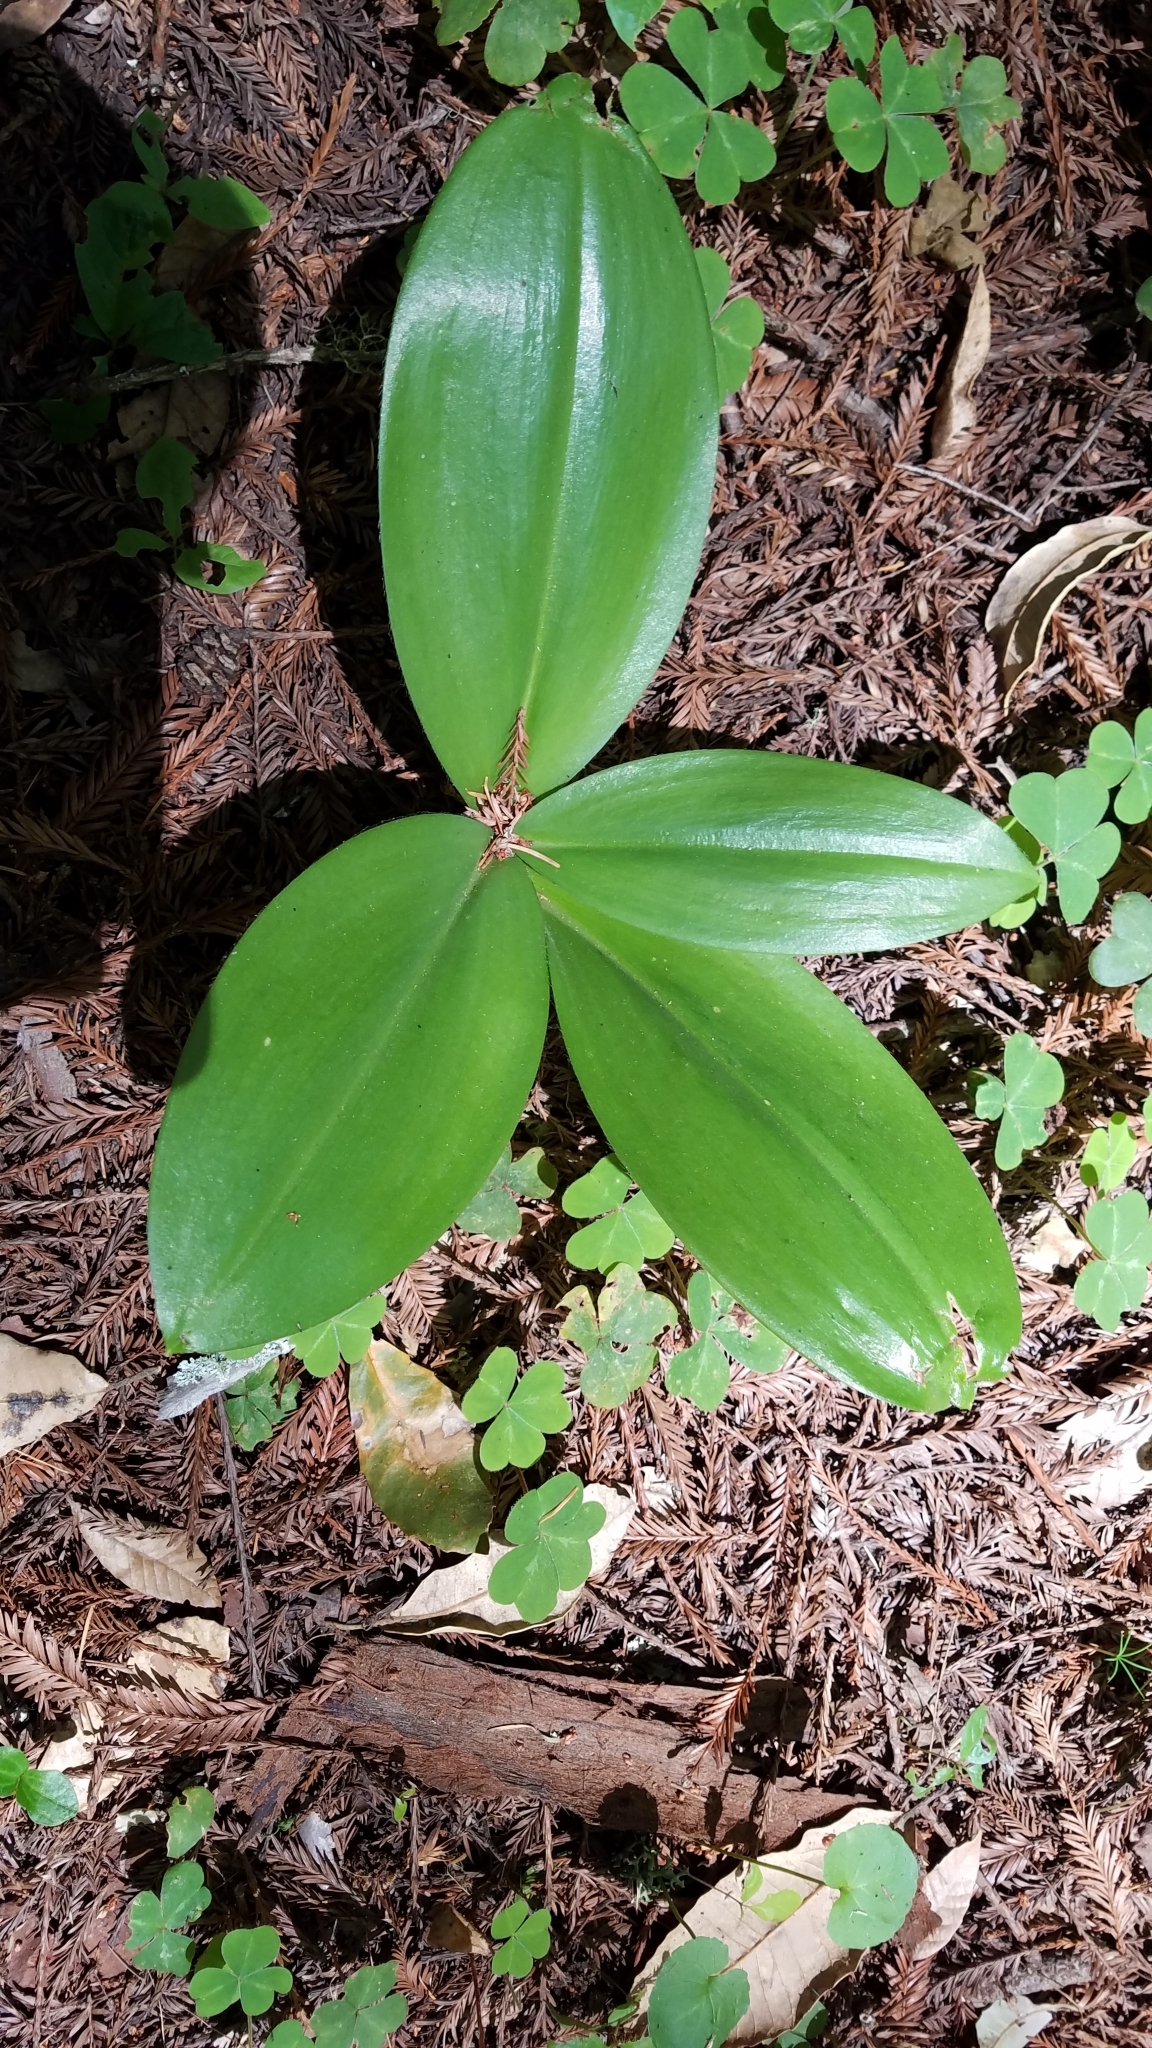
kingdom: Plantae
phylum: Tracheophyta
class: Liliopsida
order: Liliales
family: Liliaceae
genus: Clintonia
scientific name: Clintonia andrewsiana
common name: Red clintonia
